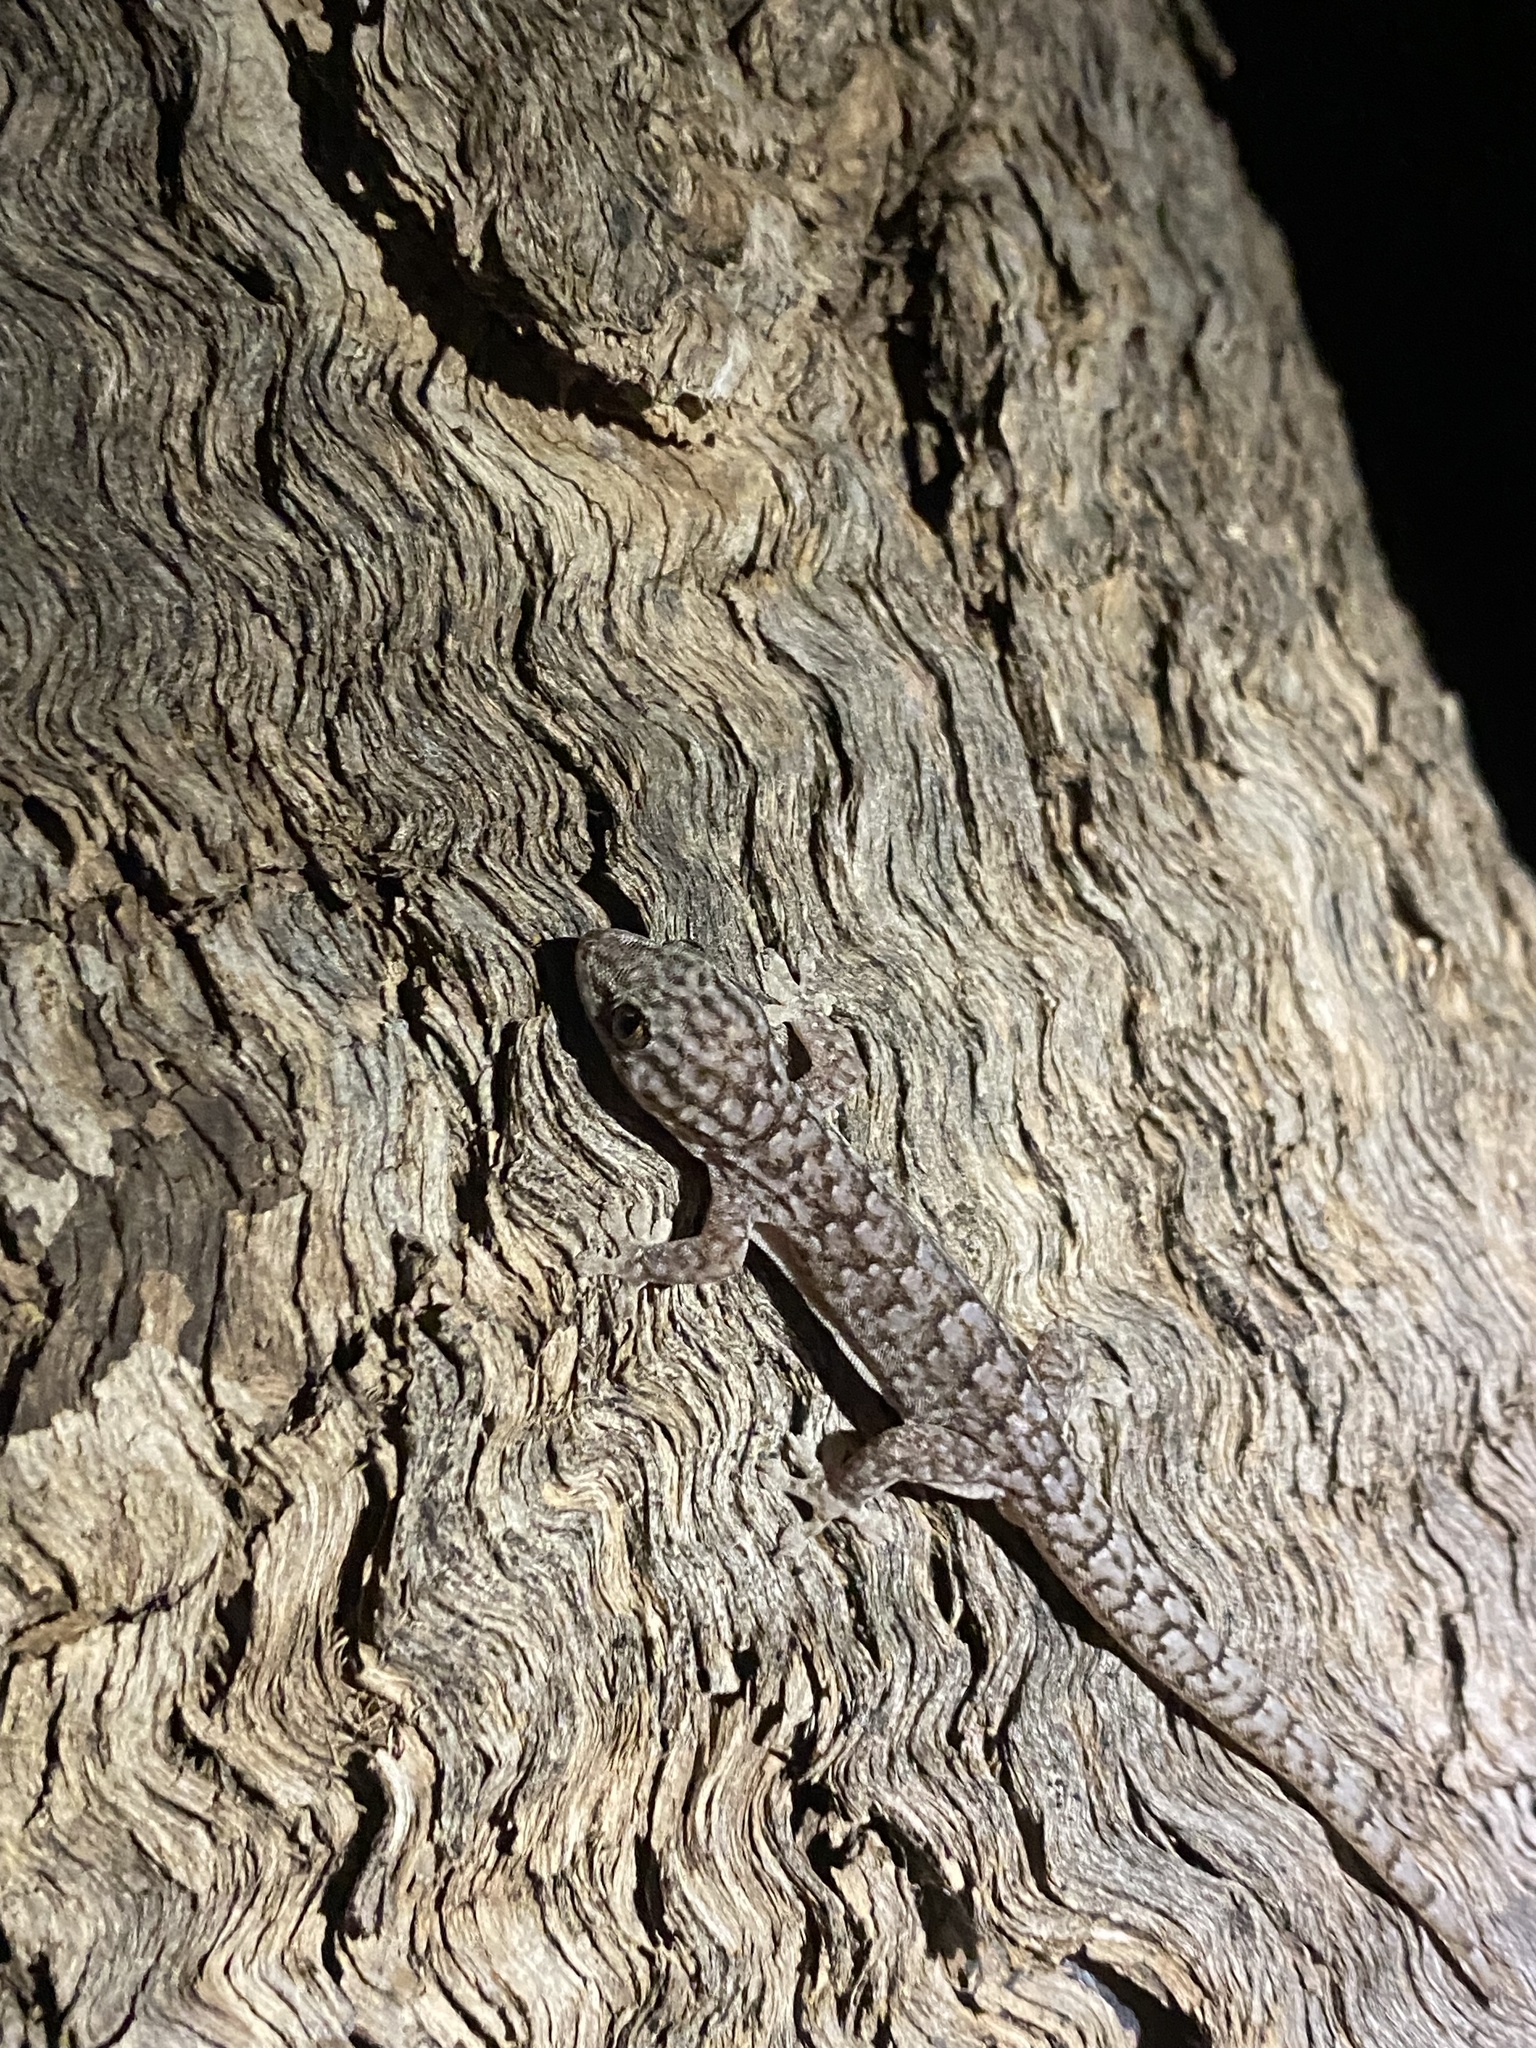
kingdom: Animalia
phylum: Chordata
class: Squamata
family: Gekkonidae
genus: Gehyra
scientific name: Gehyra versicolor
